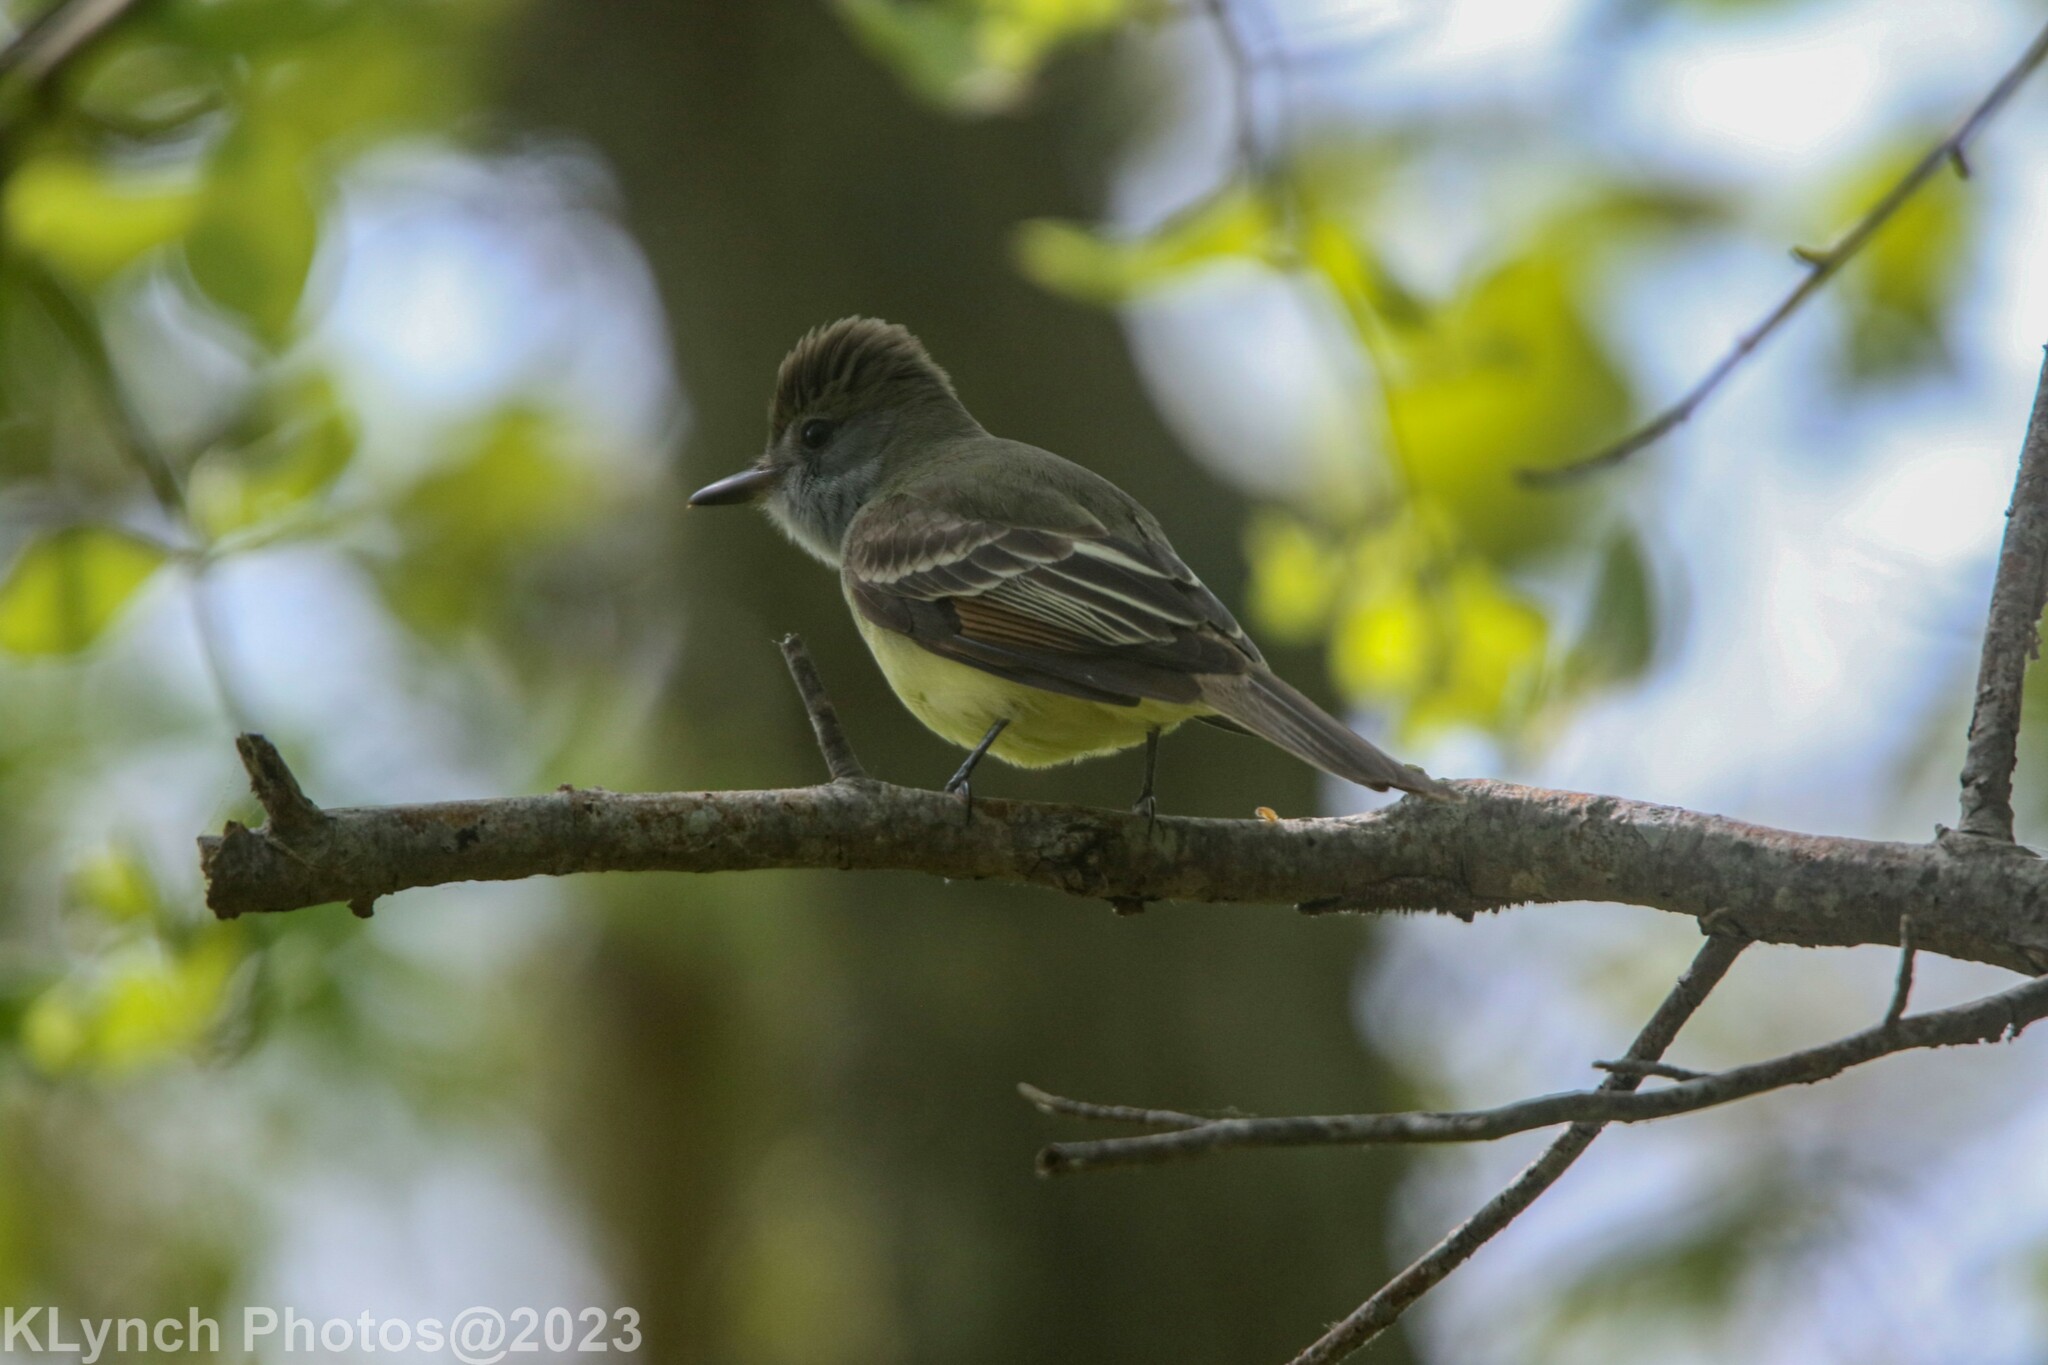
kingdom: Animalia
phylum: Chordata
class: Aves
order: Passeriformes
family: Tyrannidae
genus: Myiarchus
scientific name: Myiarchus crinitus
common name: Great crested flycatcher
